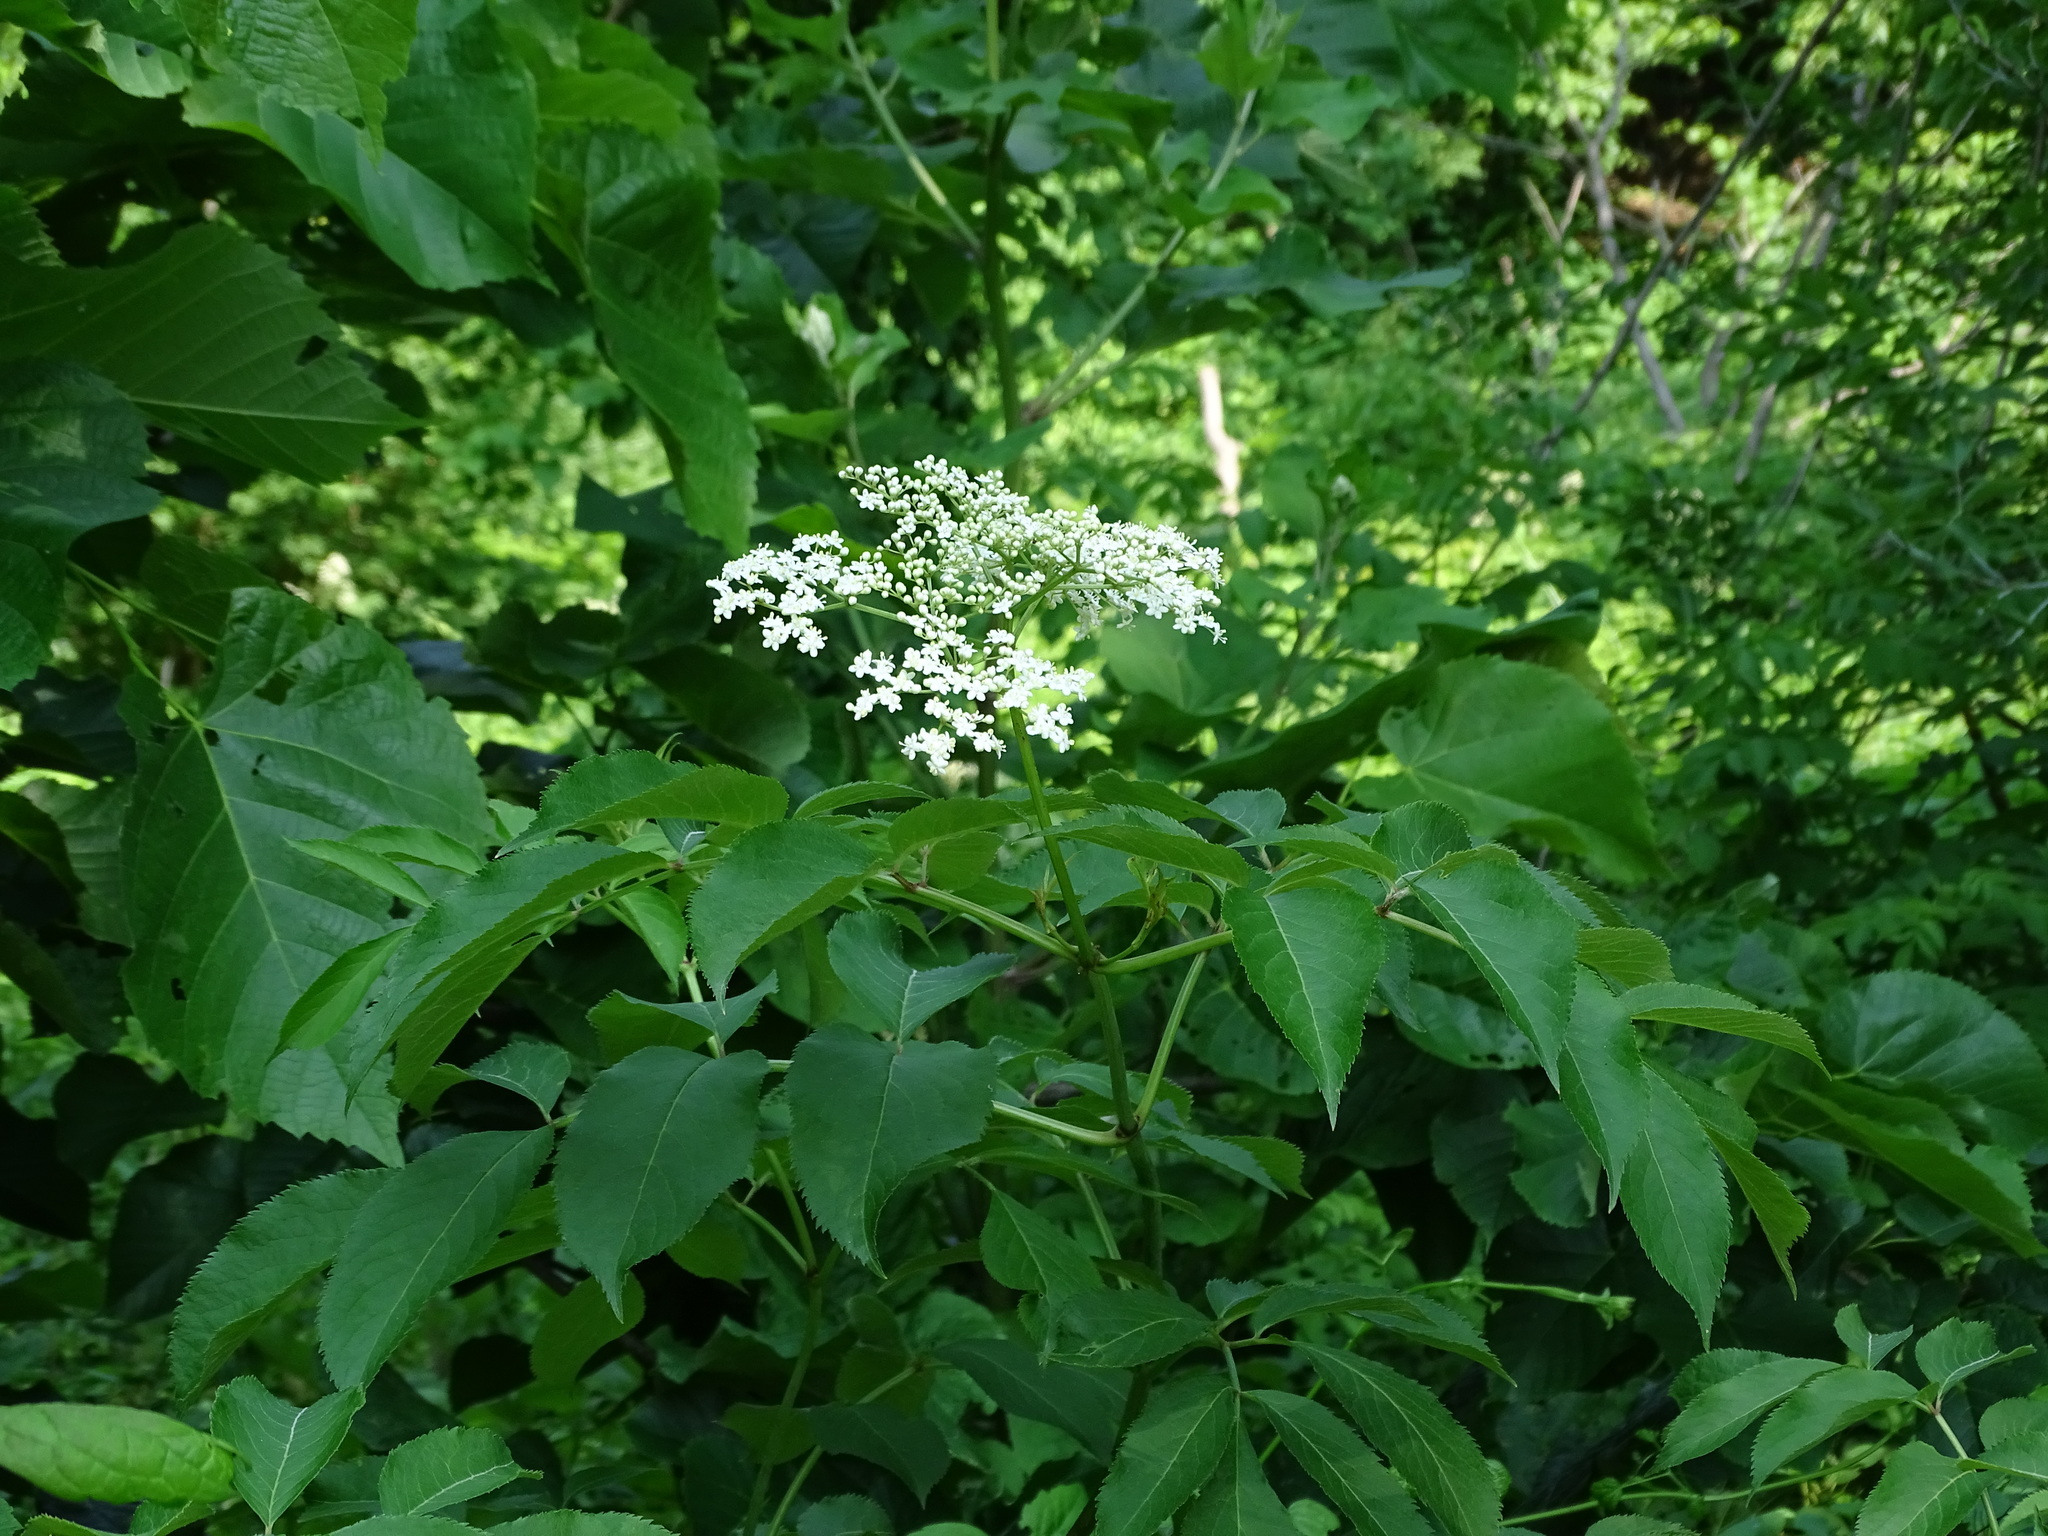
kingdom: Plantae
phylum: Tracheophyta
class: Magnoliopsida
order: Dipsacales
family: Viburnaceae
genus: Sambucus
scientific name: Sambucus canadensis
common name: American elder
